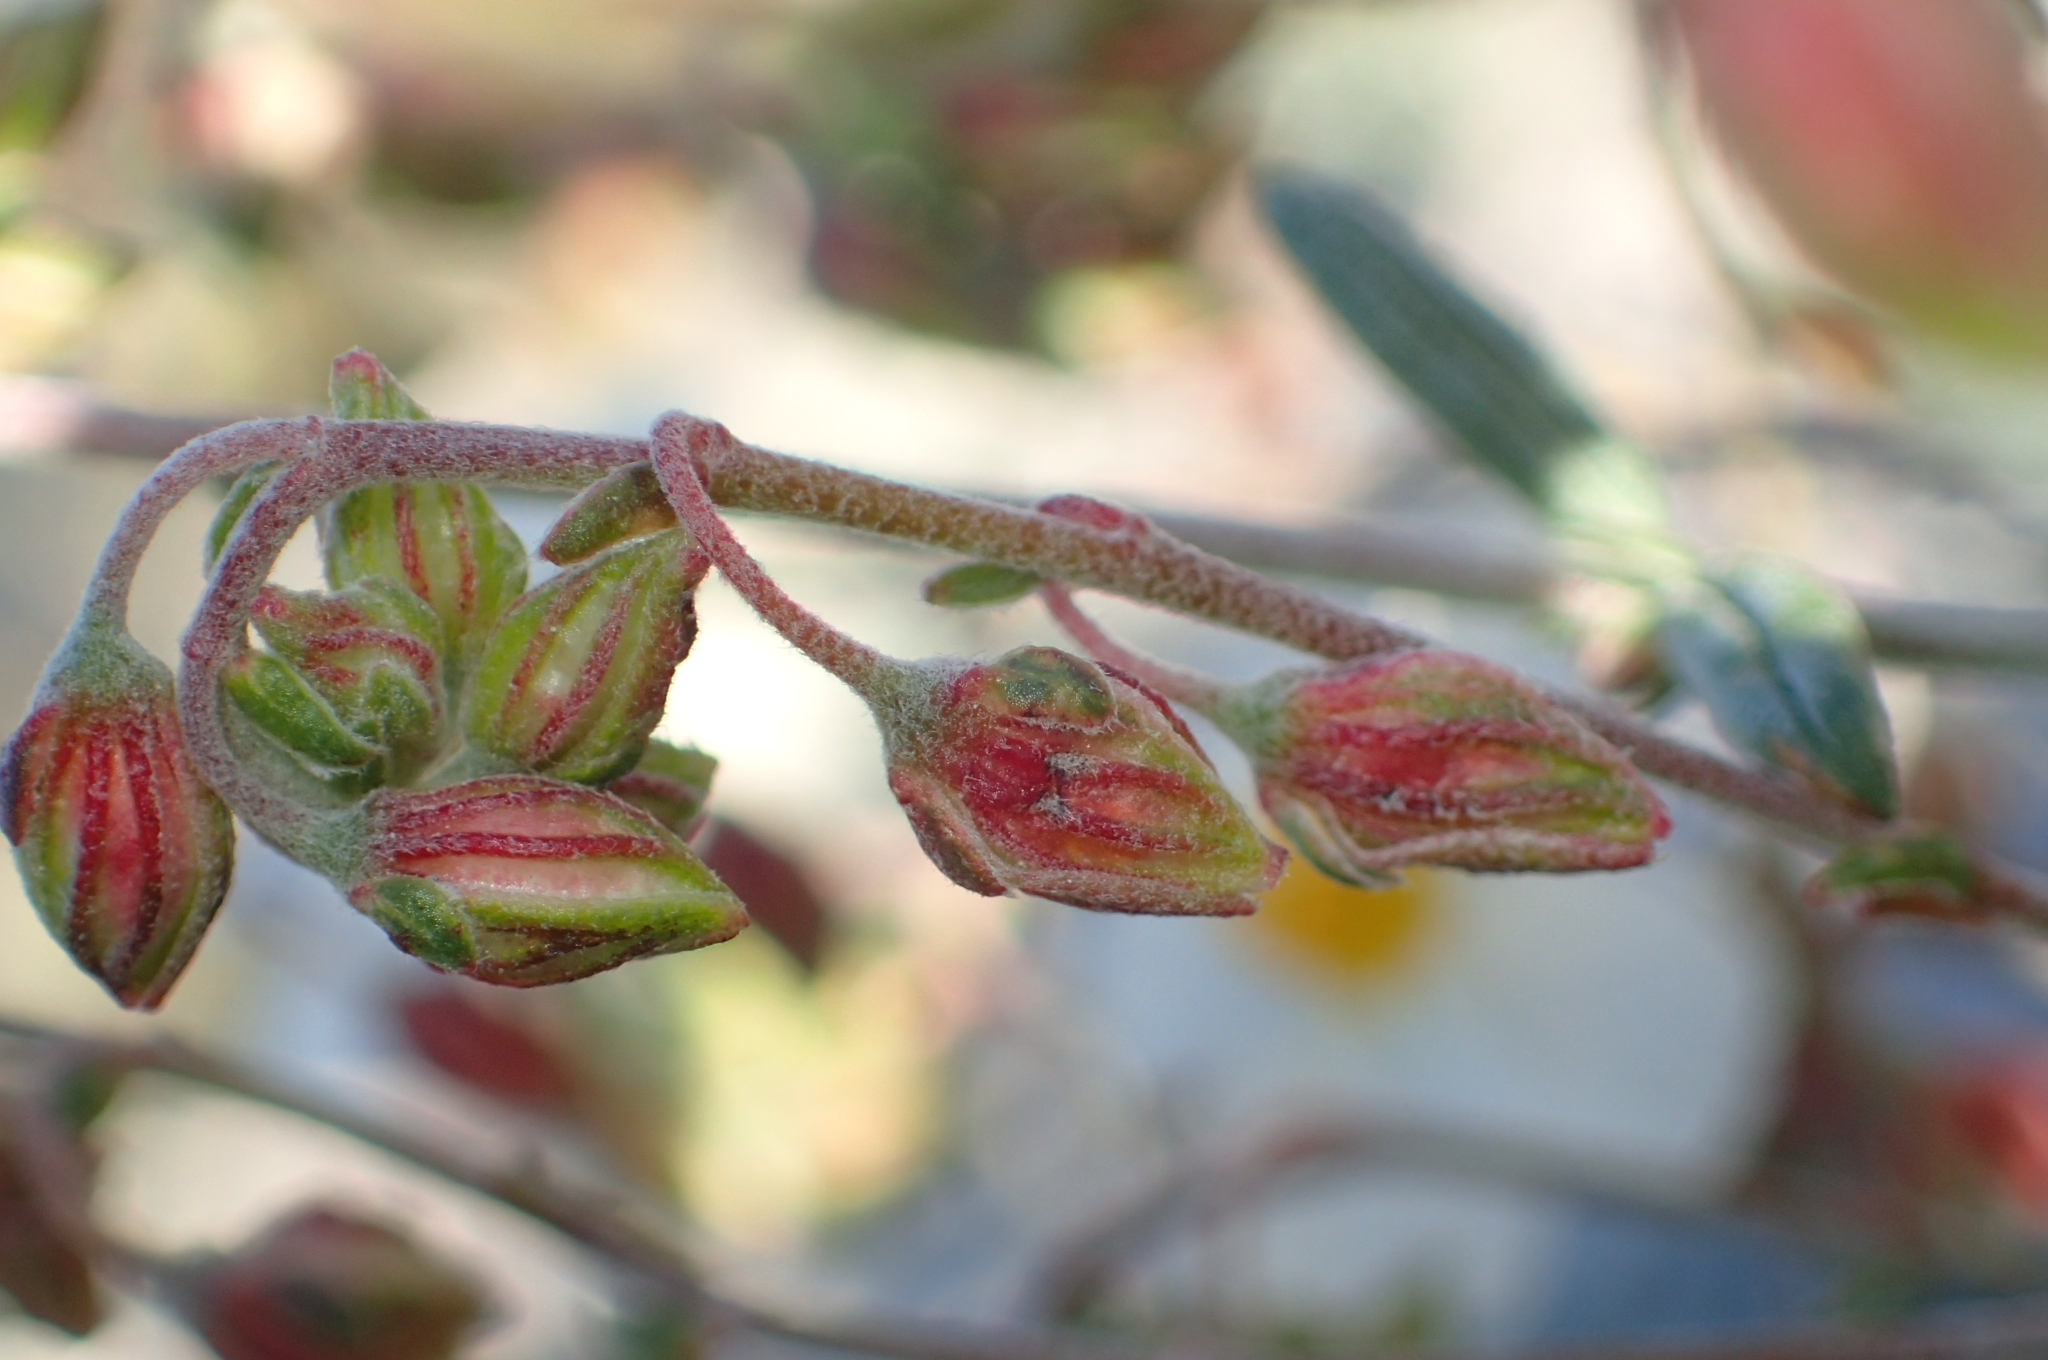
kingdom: Plantae
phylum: Tracheophyta
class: Magnoliopsida
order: Malvales
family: Cistaceae
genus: Helianthemum
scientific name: Helianthemum violaceum
